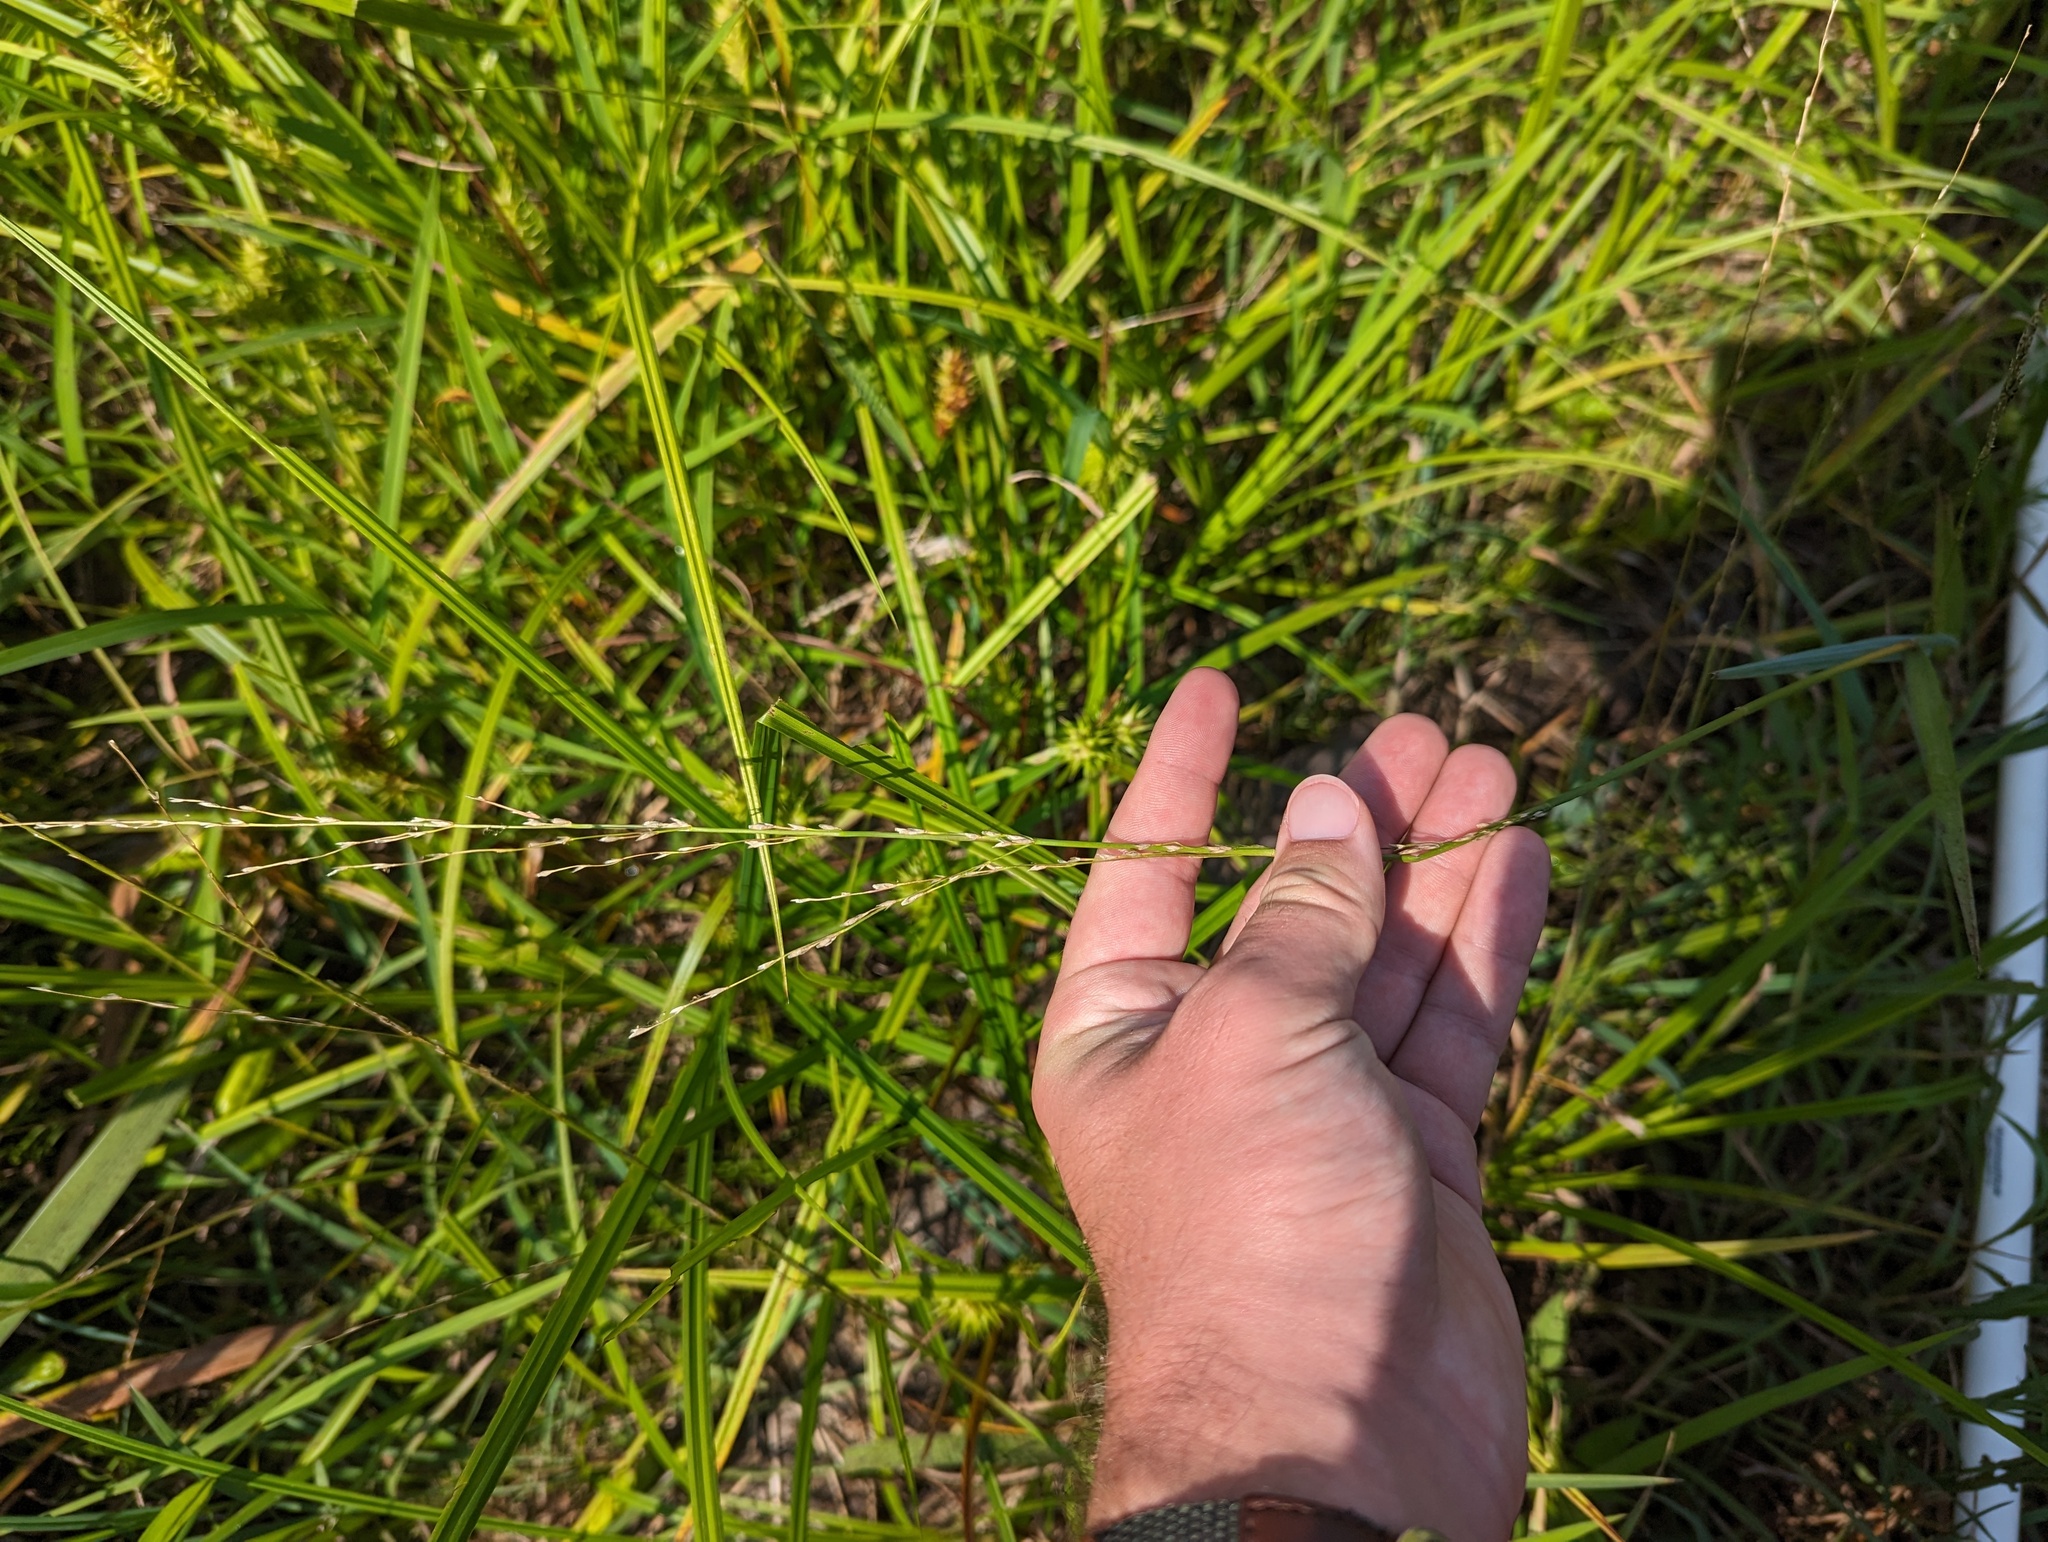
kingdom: Plantae
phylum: Tracheophyta
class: Liliopsida
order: Poales
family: Poaceae
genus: Glyceria
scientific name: Glyceria septentrionalis
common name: Eastern mannagrass
